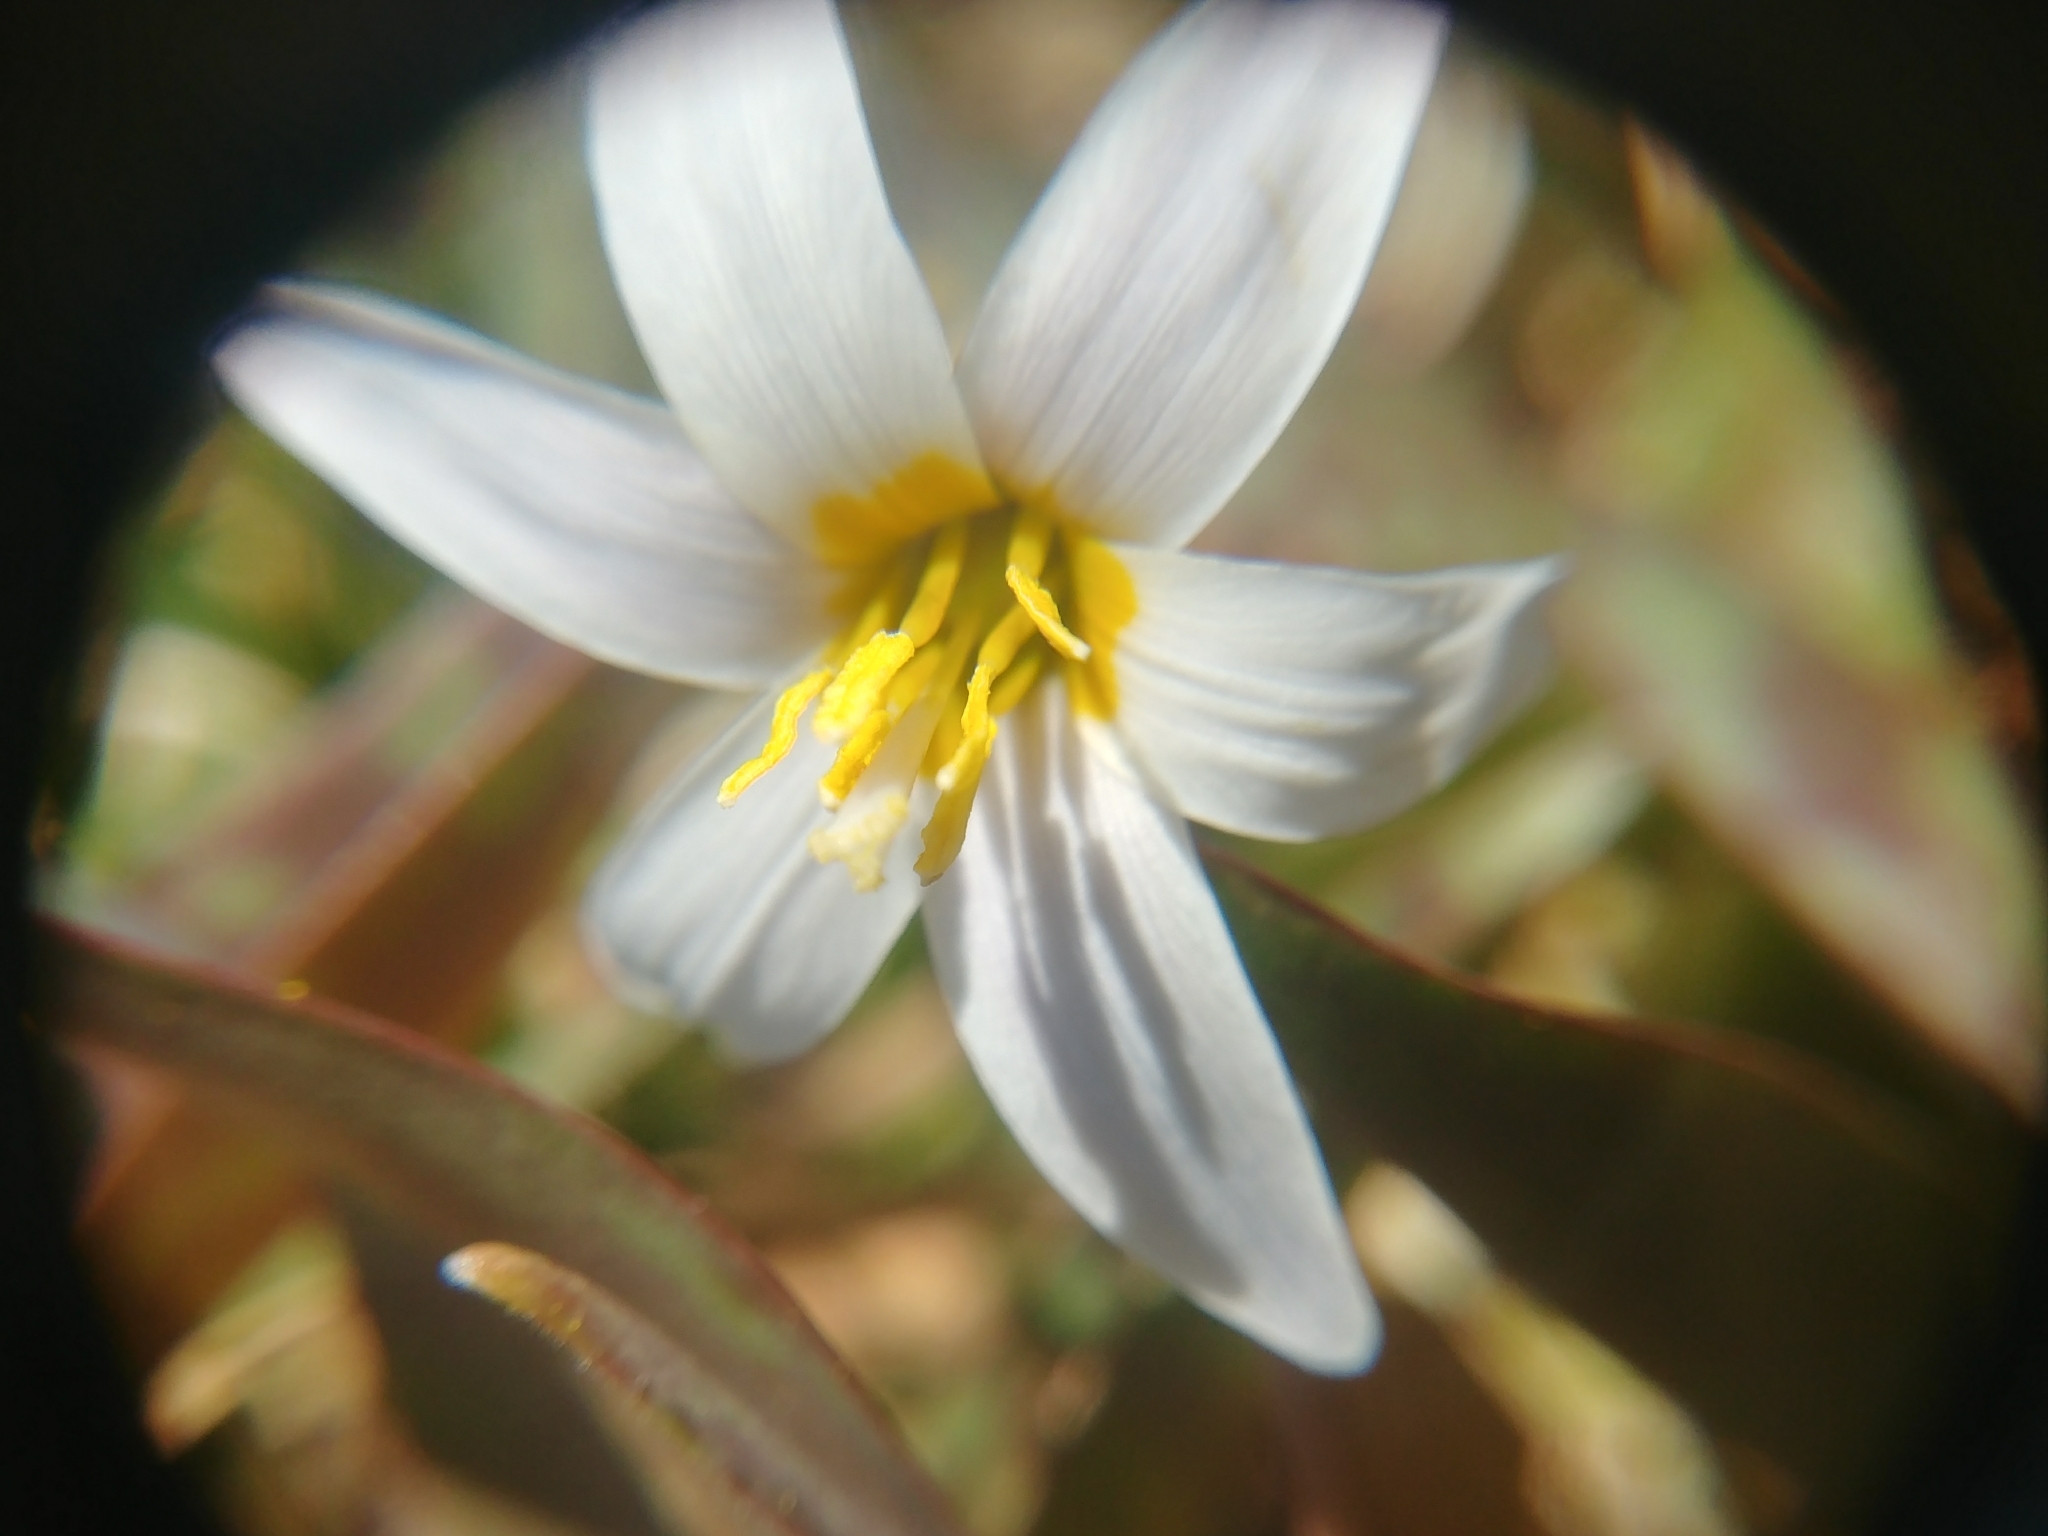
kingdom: Plantae
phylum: Tracheophyta
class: Liliopsida
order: Liliales
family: Liliaceae
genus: Erythronium
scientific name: Erythronium albidum
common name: White trout-lily
